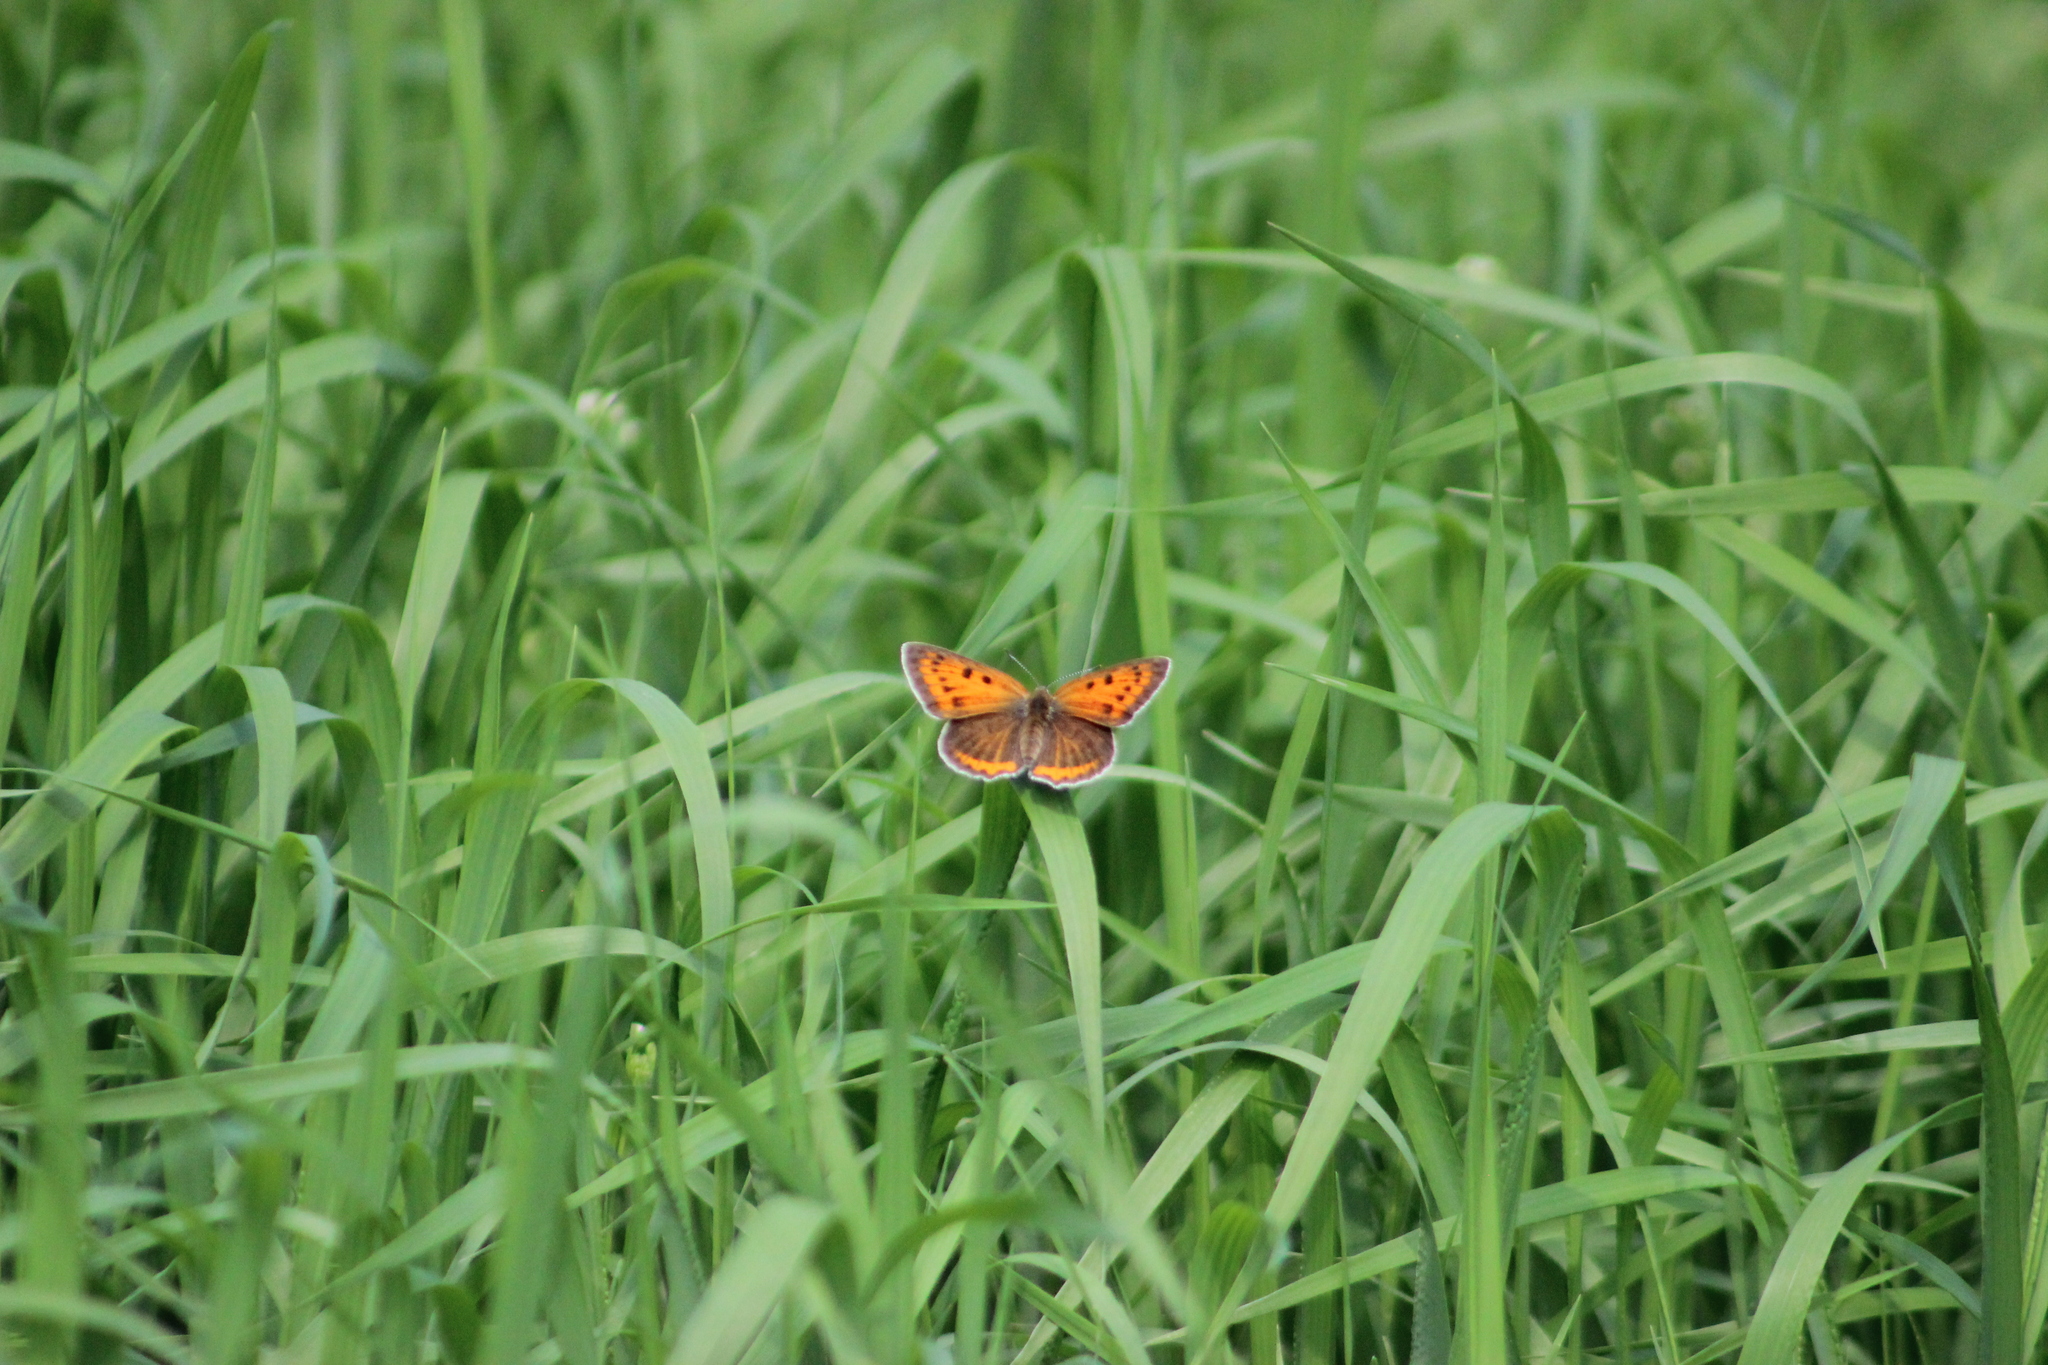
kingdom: Animalia
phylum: Arthropoda
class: Insecta
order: Lepidoptera
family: Lycaenidae
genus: Lycaena
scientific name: Lycaena dispar
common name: Large copper
